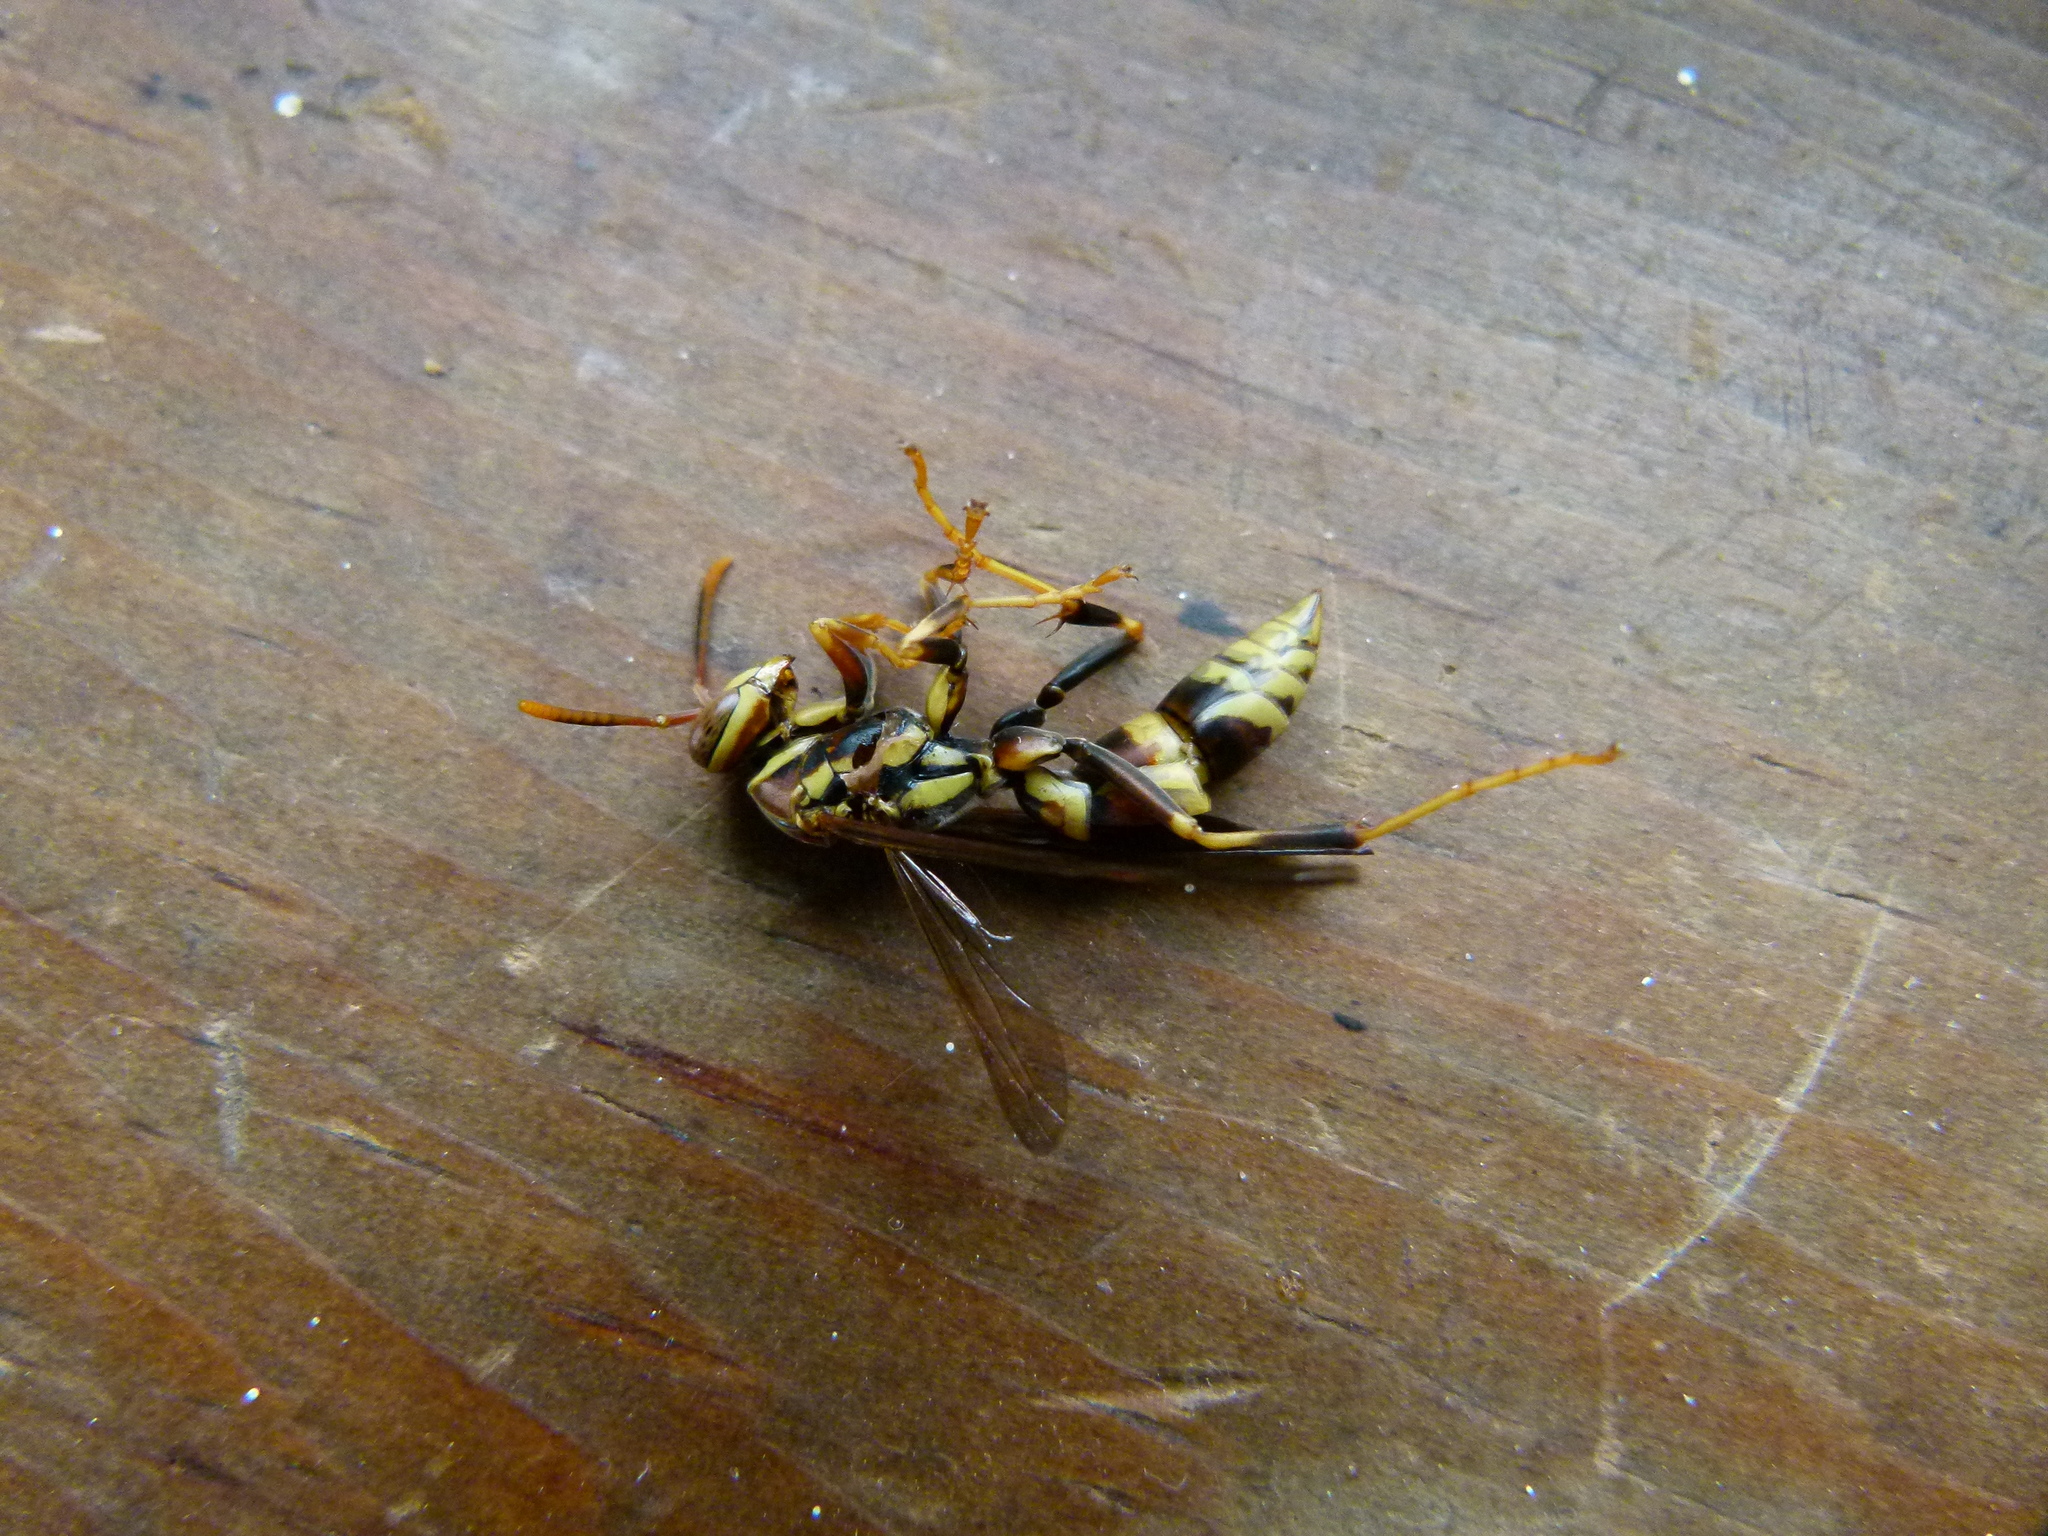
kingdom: Animalia
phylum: Arthropoda
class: Insecta
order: Hymenoptera
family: Eumenidae
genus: Polistes
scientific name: Polistes exclamans
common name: Paper wasp
